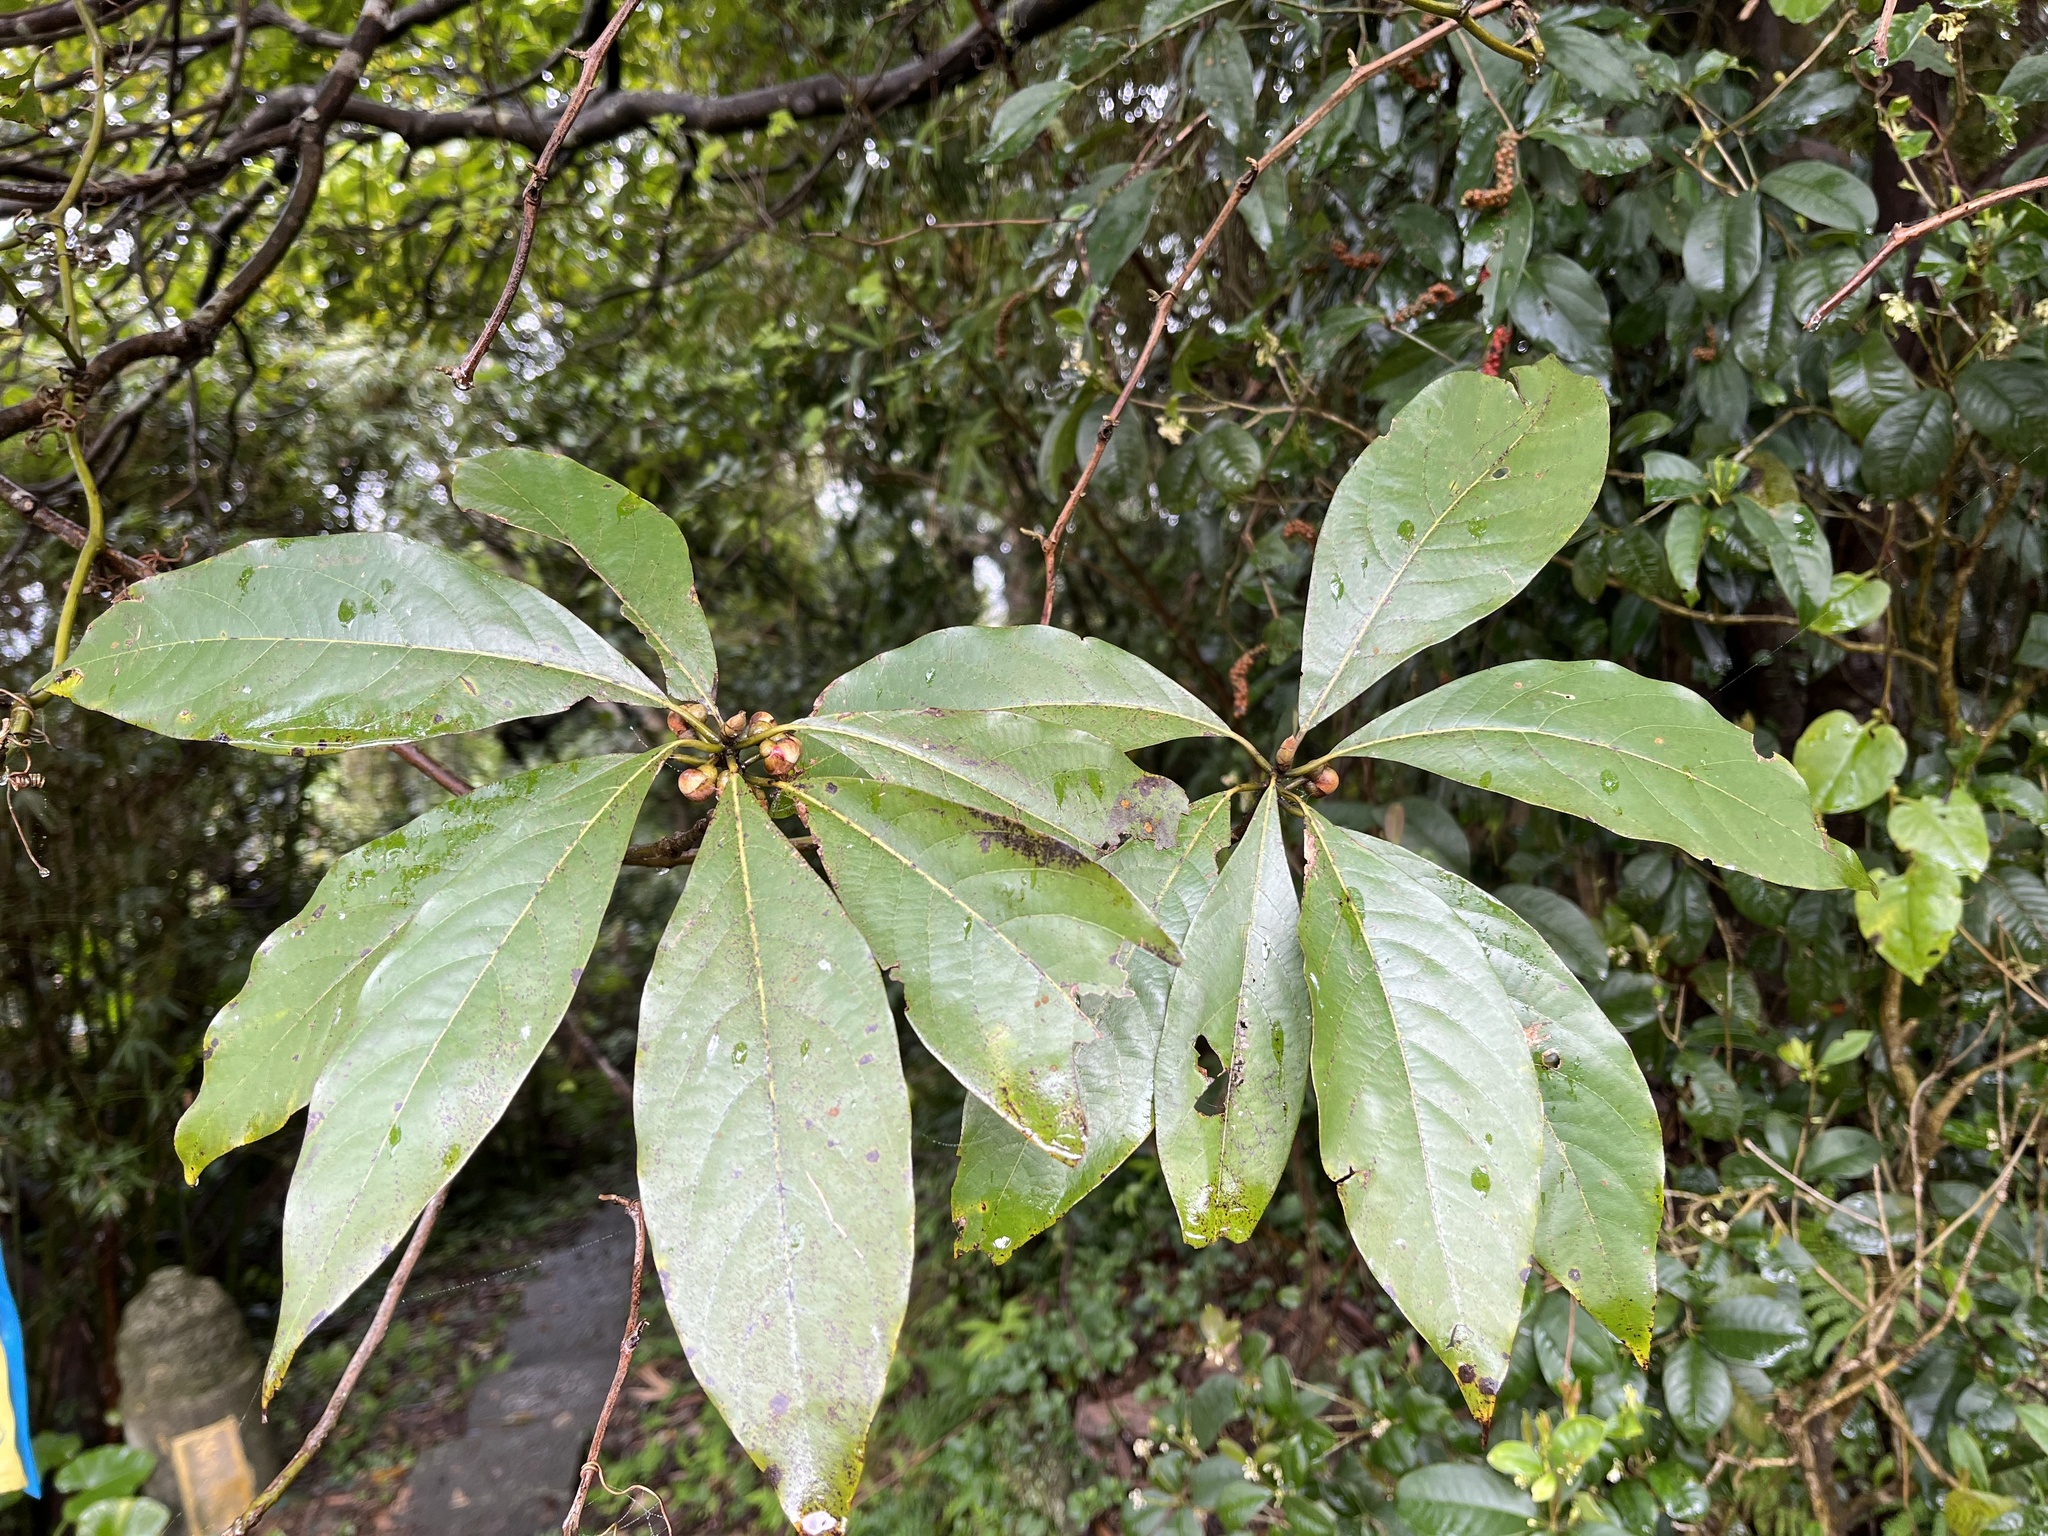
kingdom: Plantae
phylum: Tracheophyta
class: Magnoliopsida
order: Laurales
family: Lauraceae
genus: Lindera
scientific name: Lindera megaphylla
